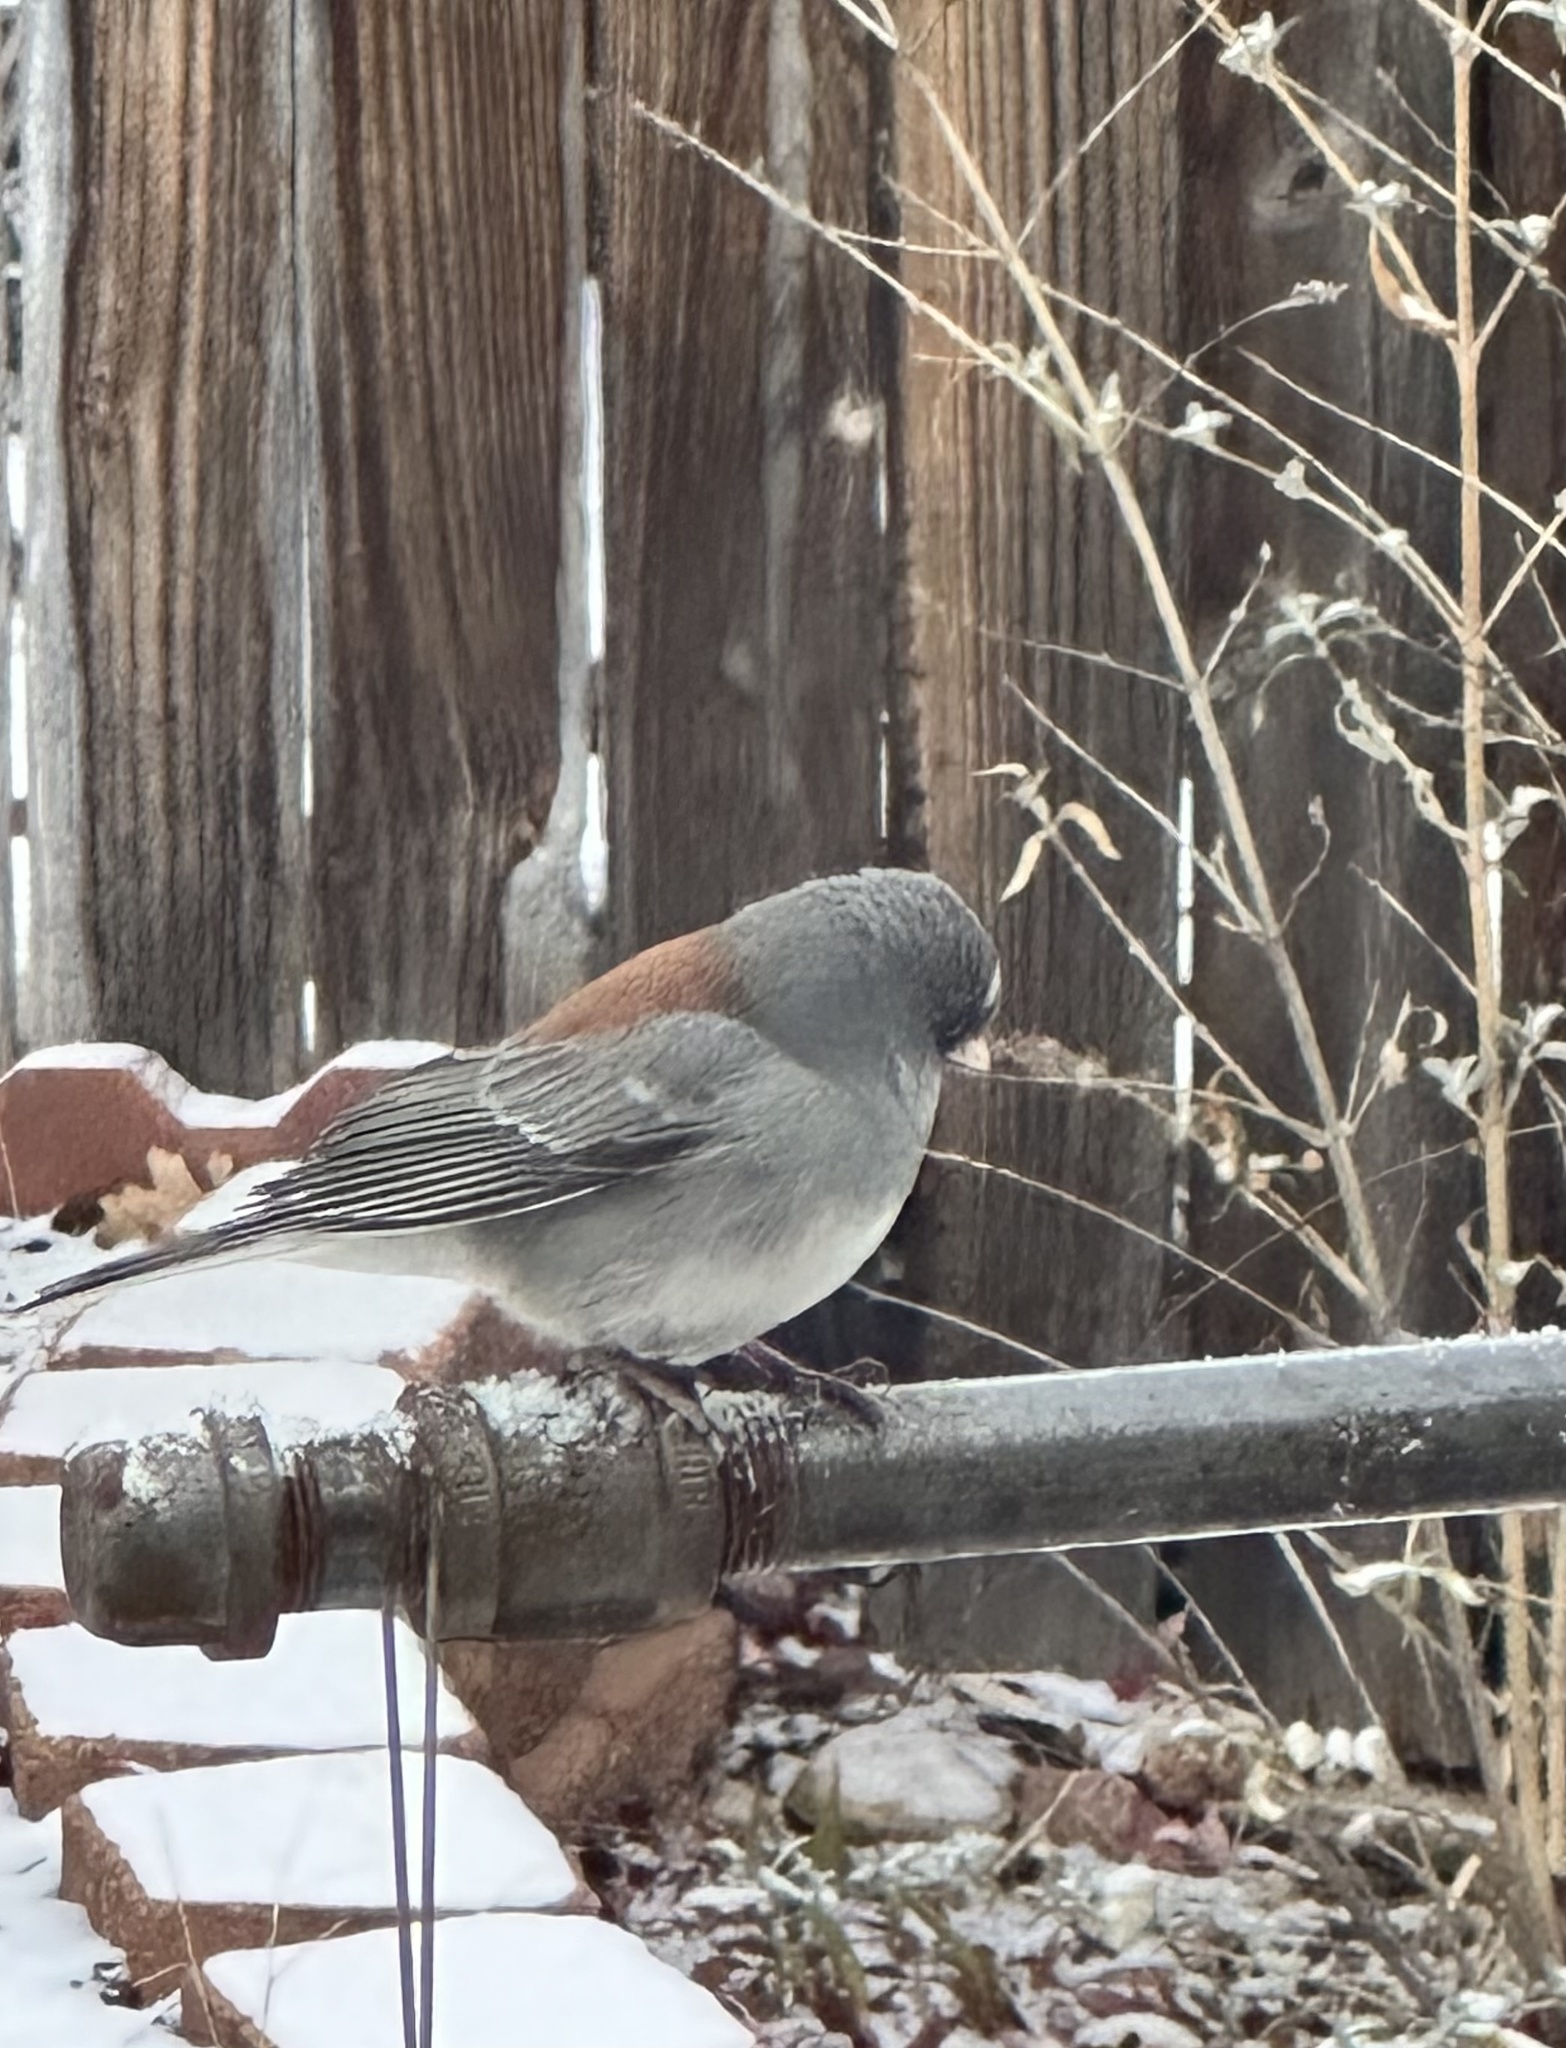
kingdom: Animalia
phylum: Chordata
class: Aves
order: Passeriformes
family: Passerellidae
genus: Junco
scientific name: Junco hyemalis
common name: Dark-eyed junco
